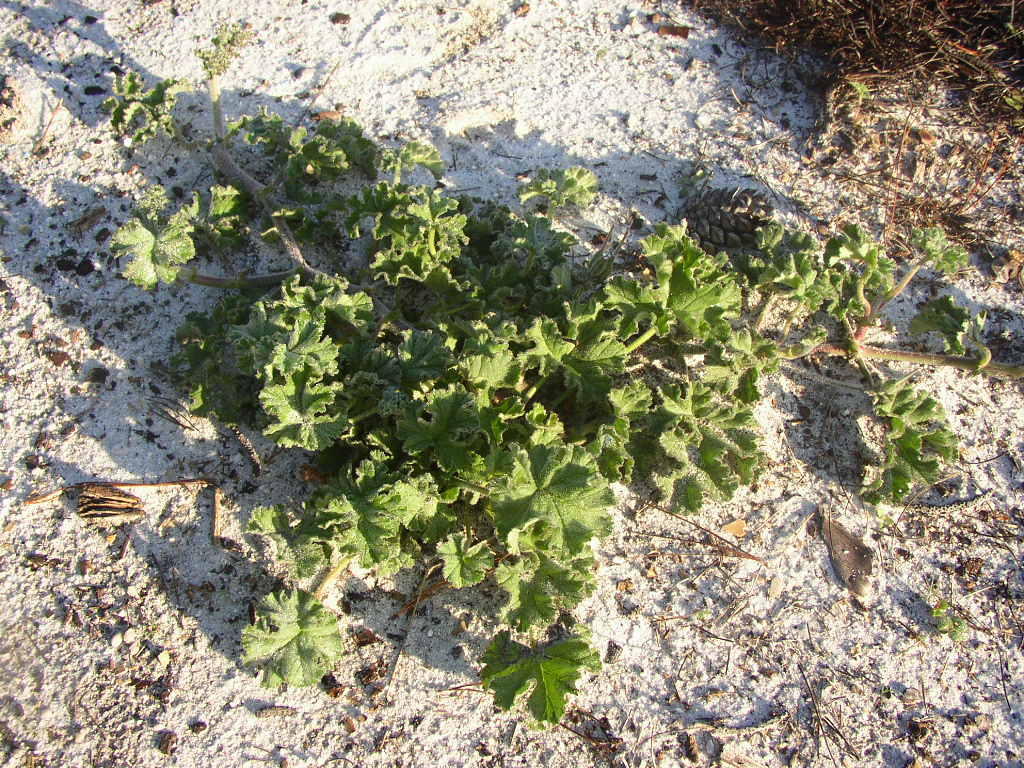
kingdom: Plantae
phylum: Tracheophyta
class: Magnoliopsida
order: Geraniales
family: Geraniaceae
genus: Pelargonium
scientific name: Pelargonium capitatum
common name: Rose scented geranium
